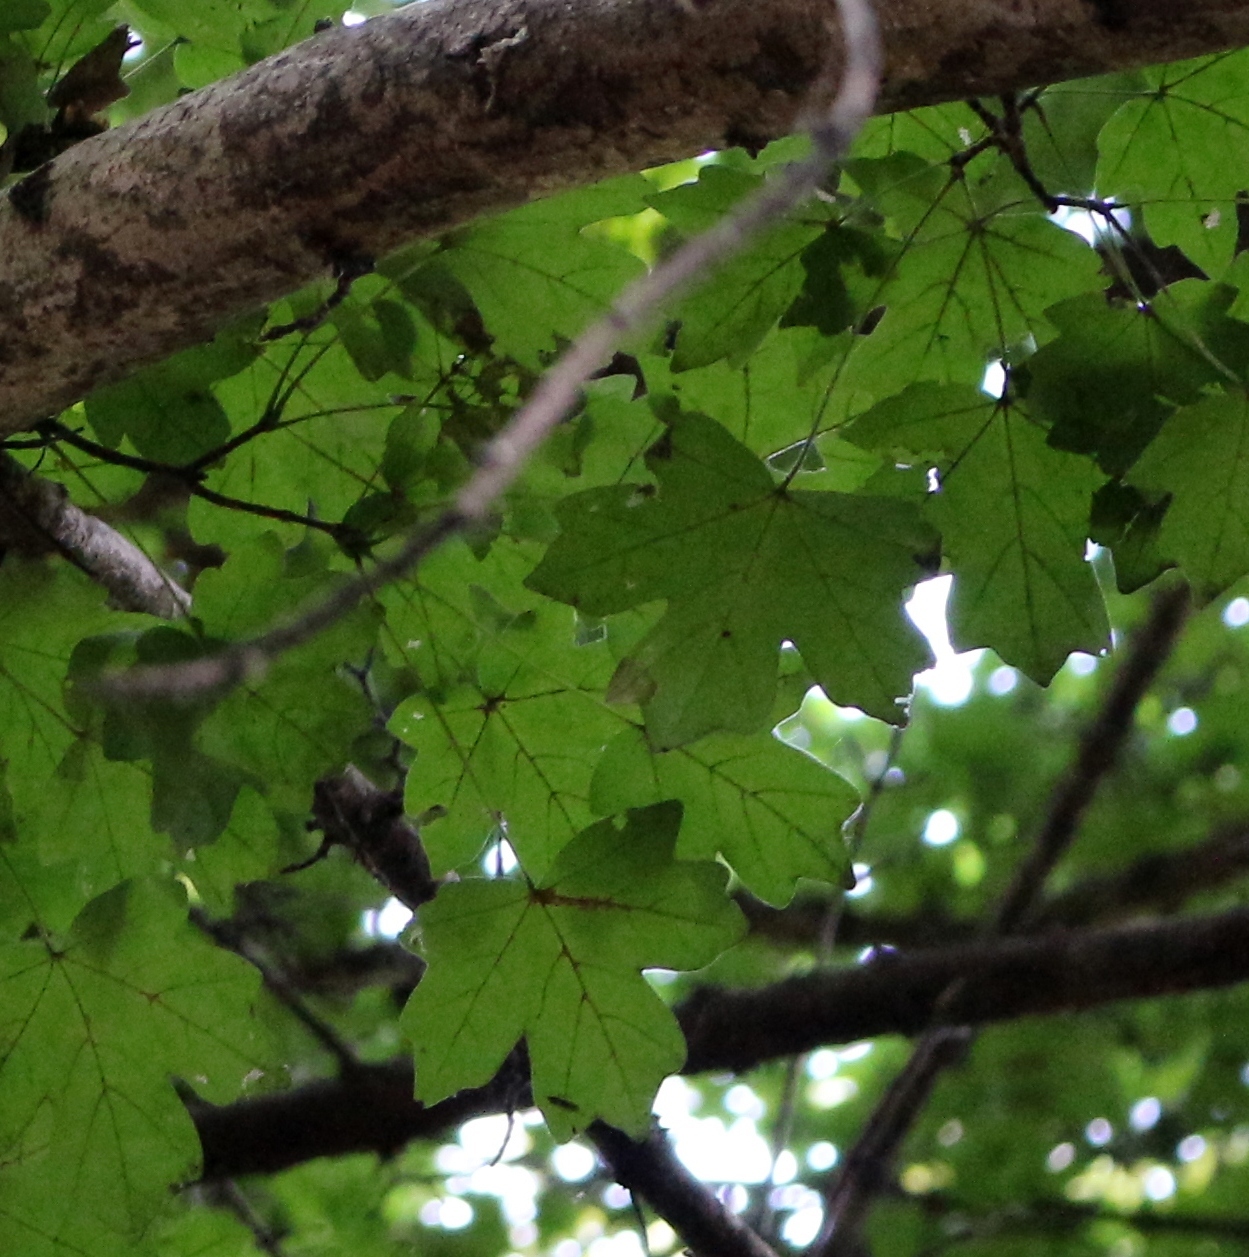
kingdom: Plantae
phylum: Tracheophyta
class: Magnoliopsida
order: Sapindales
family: Sapindaceae
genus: Acer
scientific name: Acer campestre
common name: Field maple
